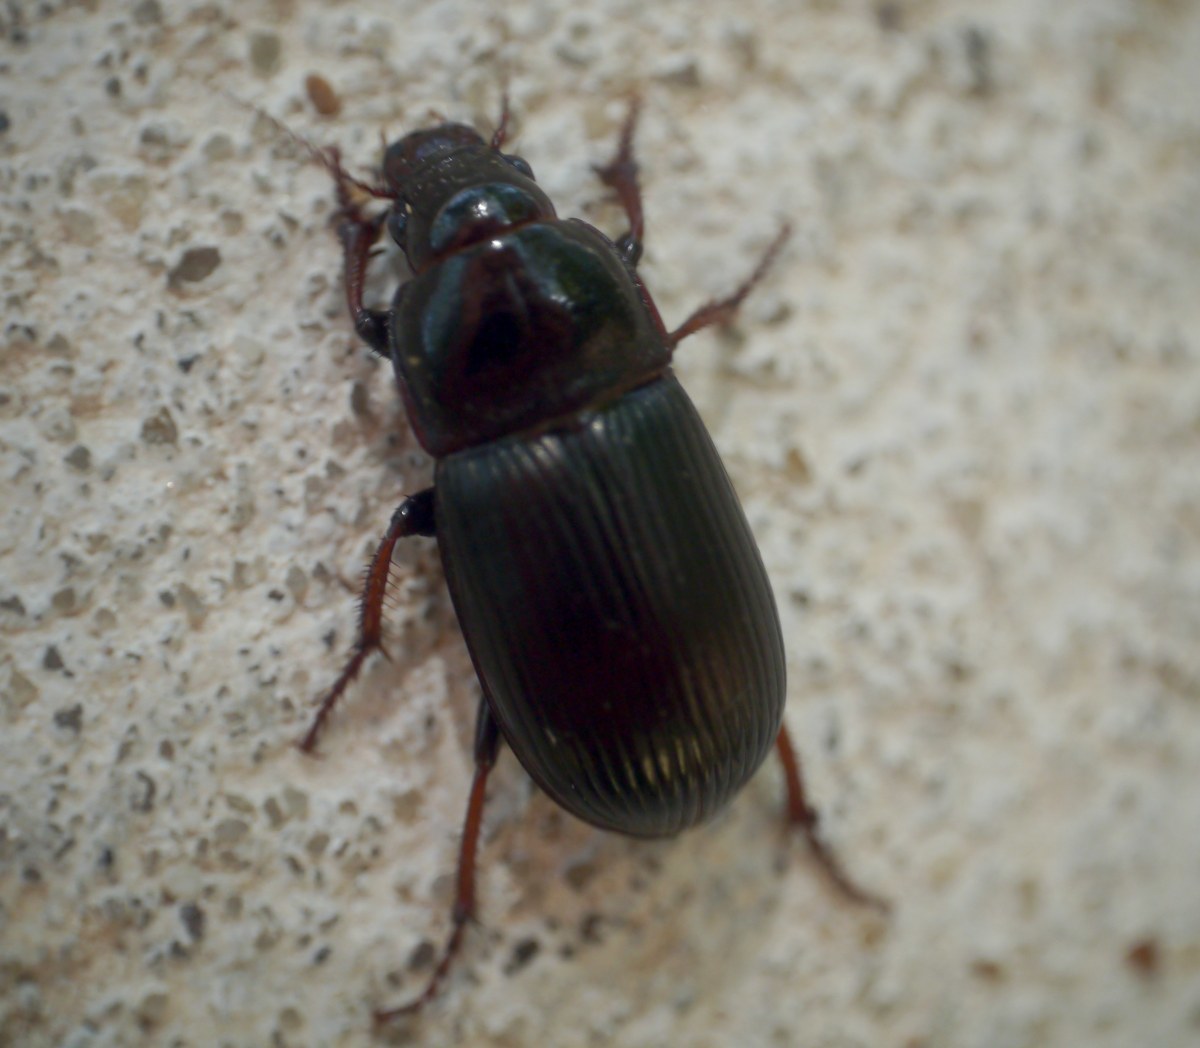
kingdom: Animalia
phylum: Arthropoda
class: Insecta
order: Coleoptera
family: Carabidae
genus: Zabrus
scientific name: Zabrus tenebrioides
